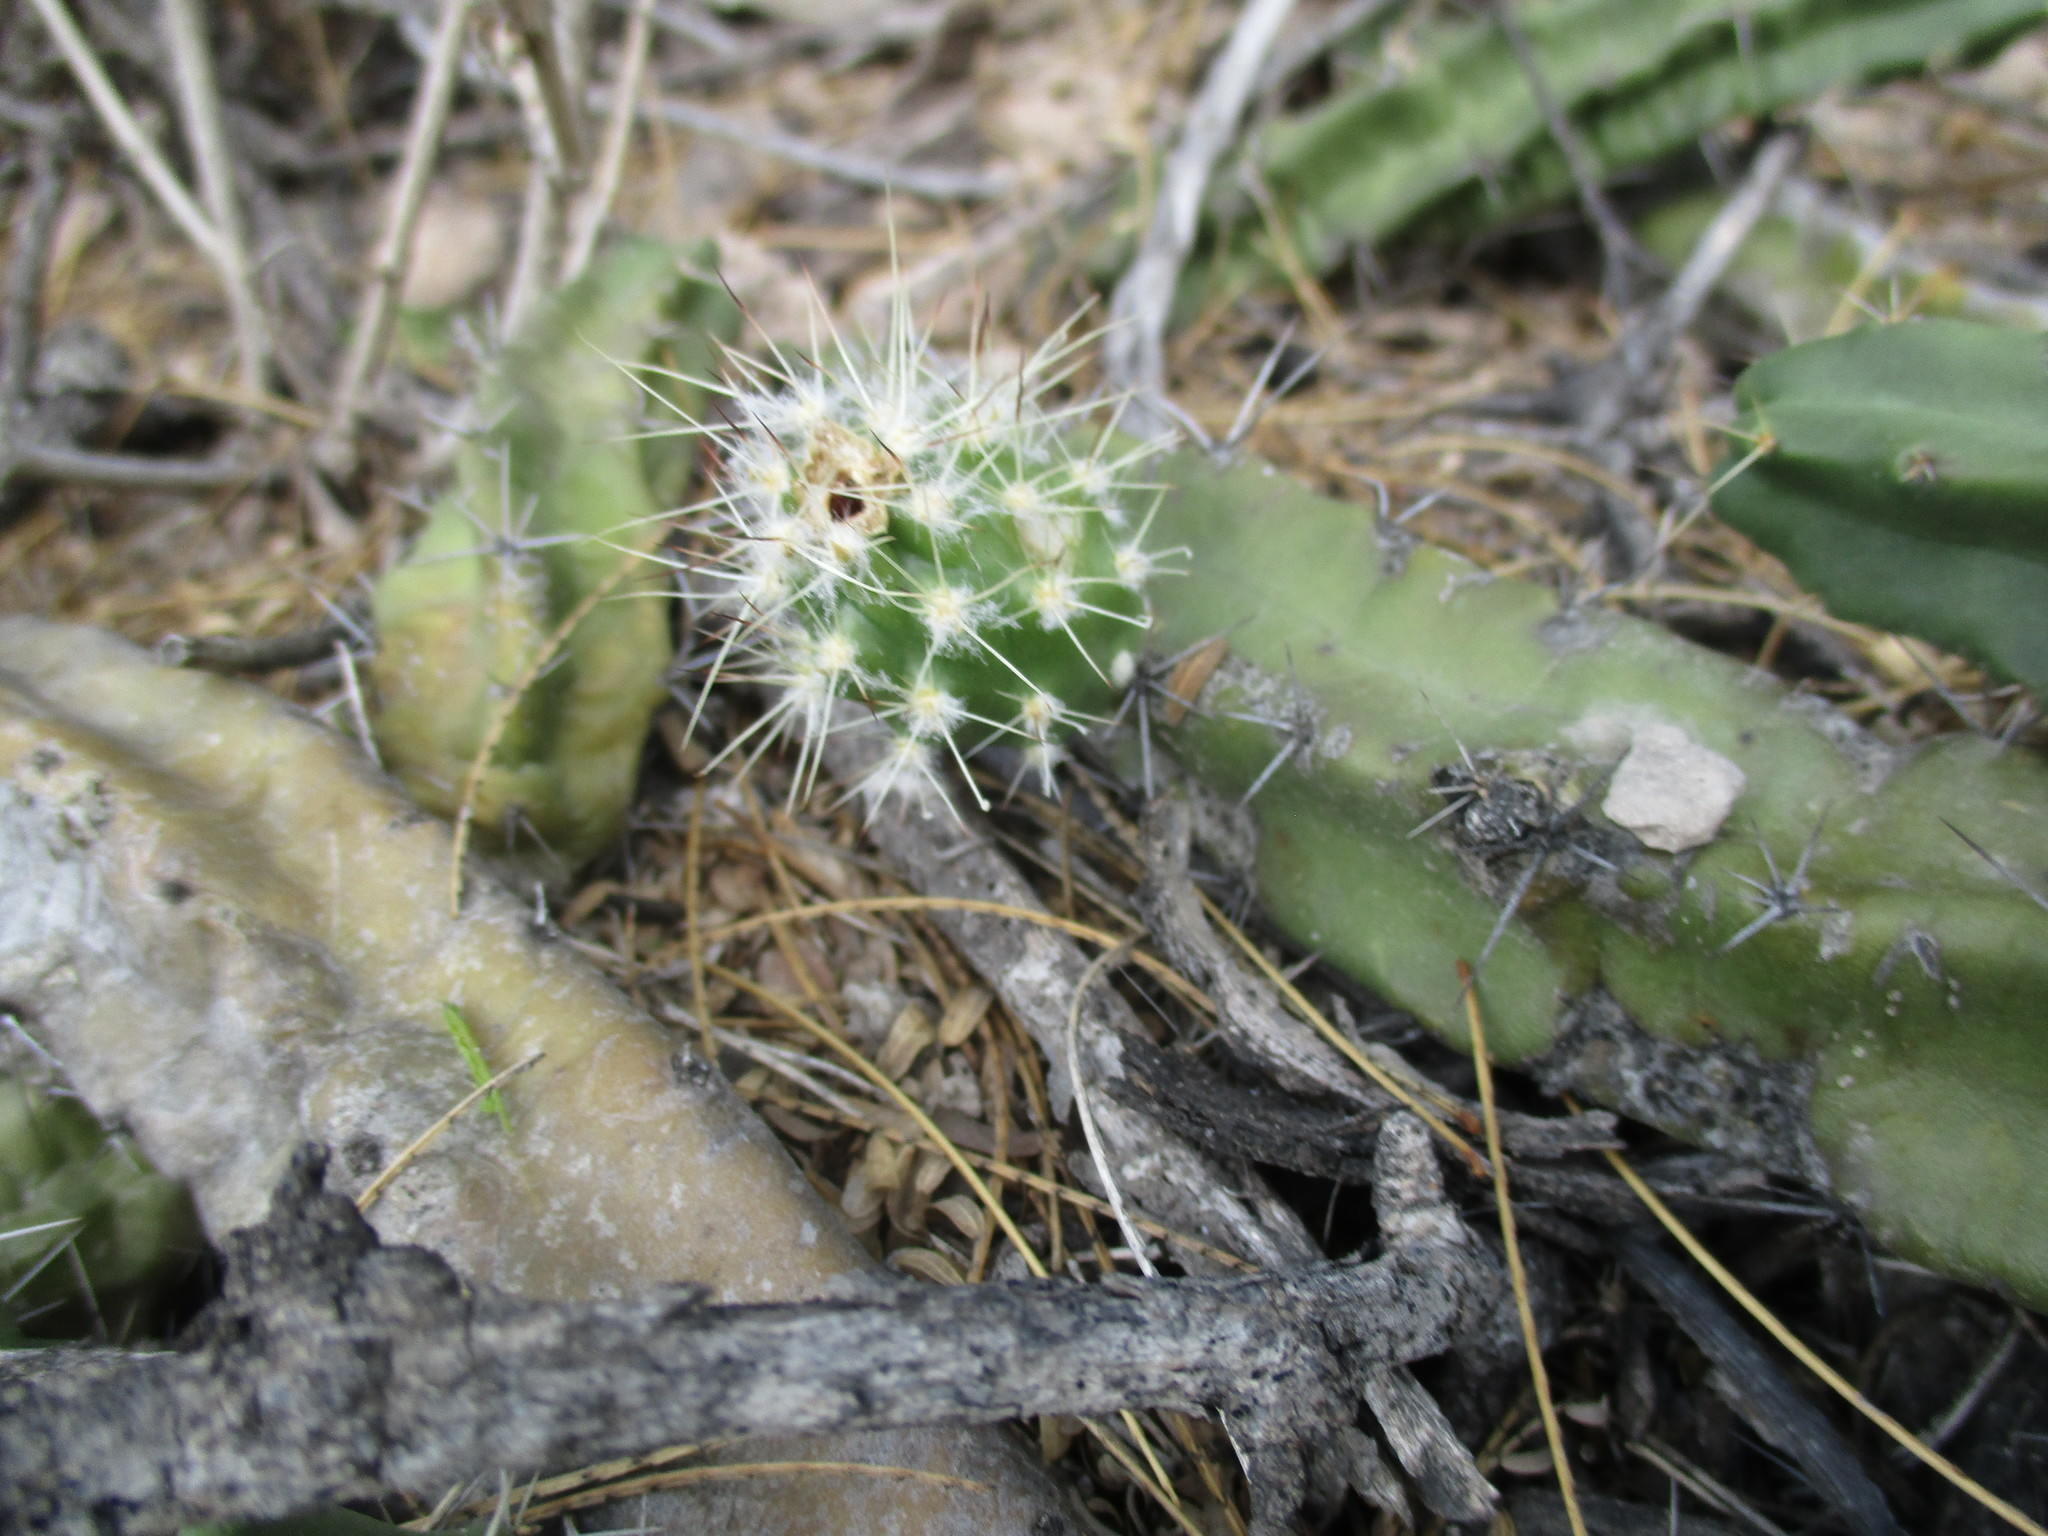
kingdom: Plantae
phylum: Tracheophyta
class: Magnoliopsida
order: Caryophyllales
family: Cactaceae
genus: Echinocereus
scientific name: Echinocereus pentalophus
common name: Ladyfinger cactus
